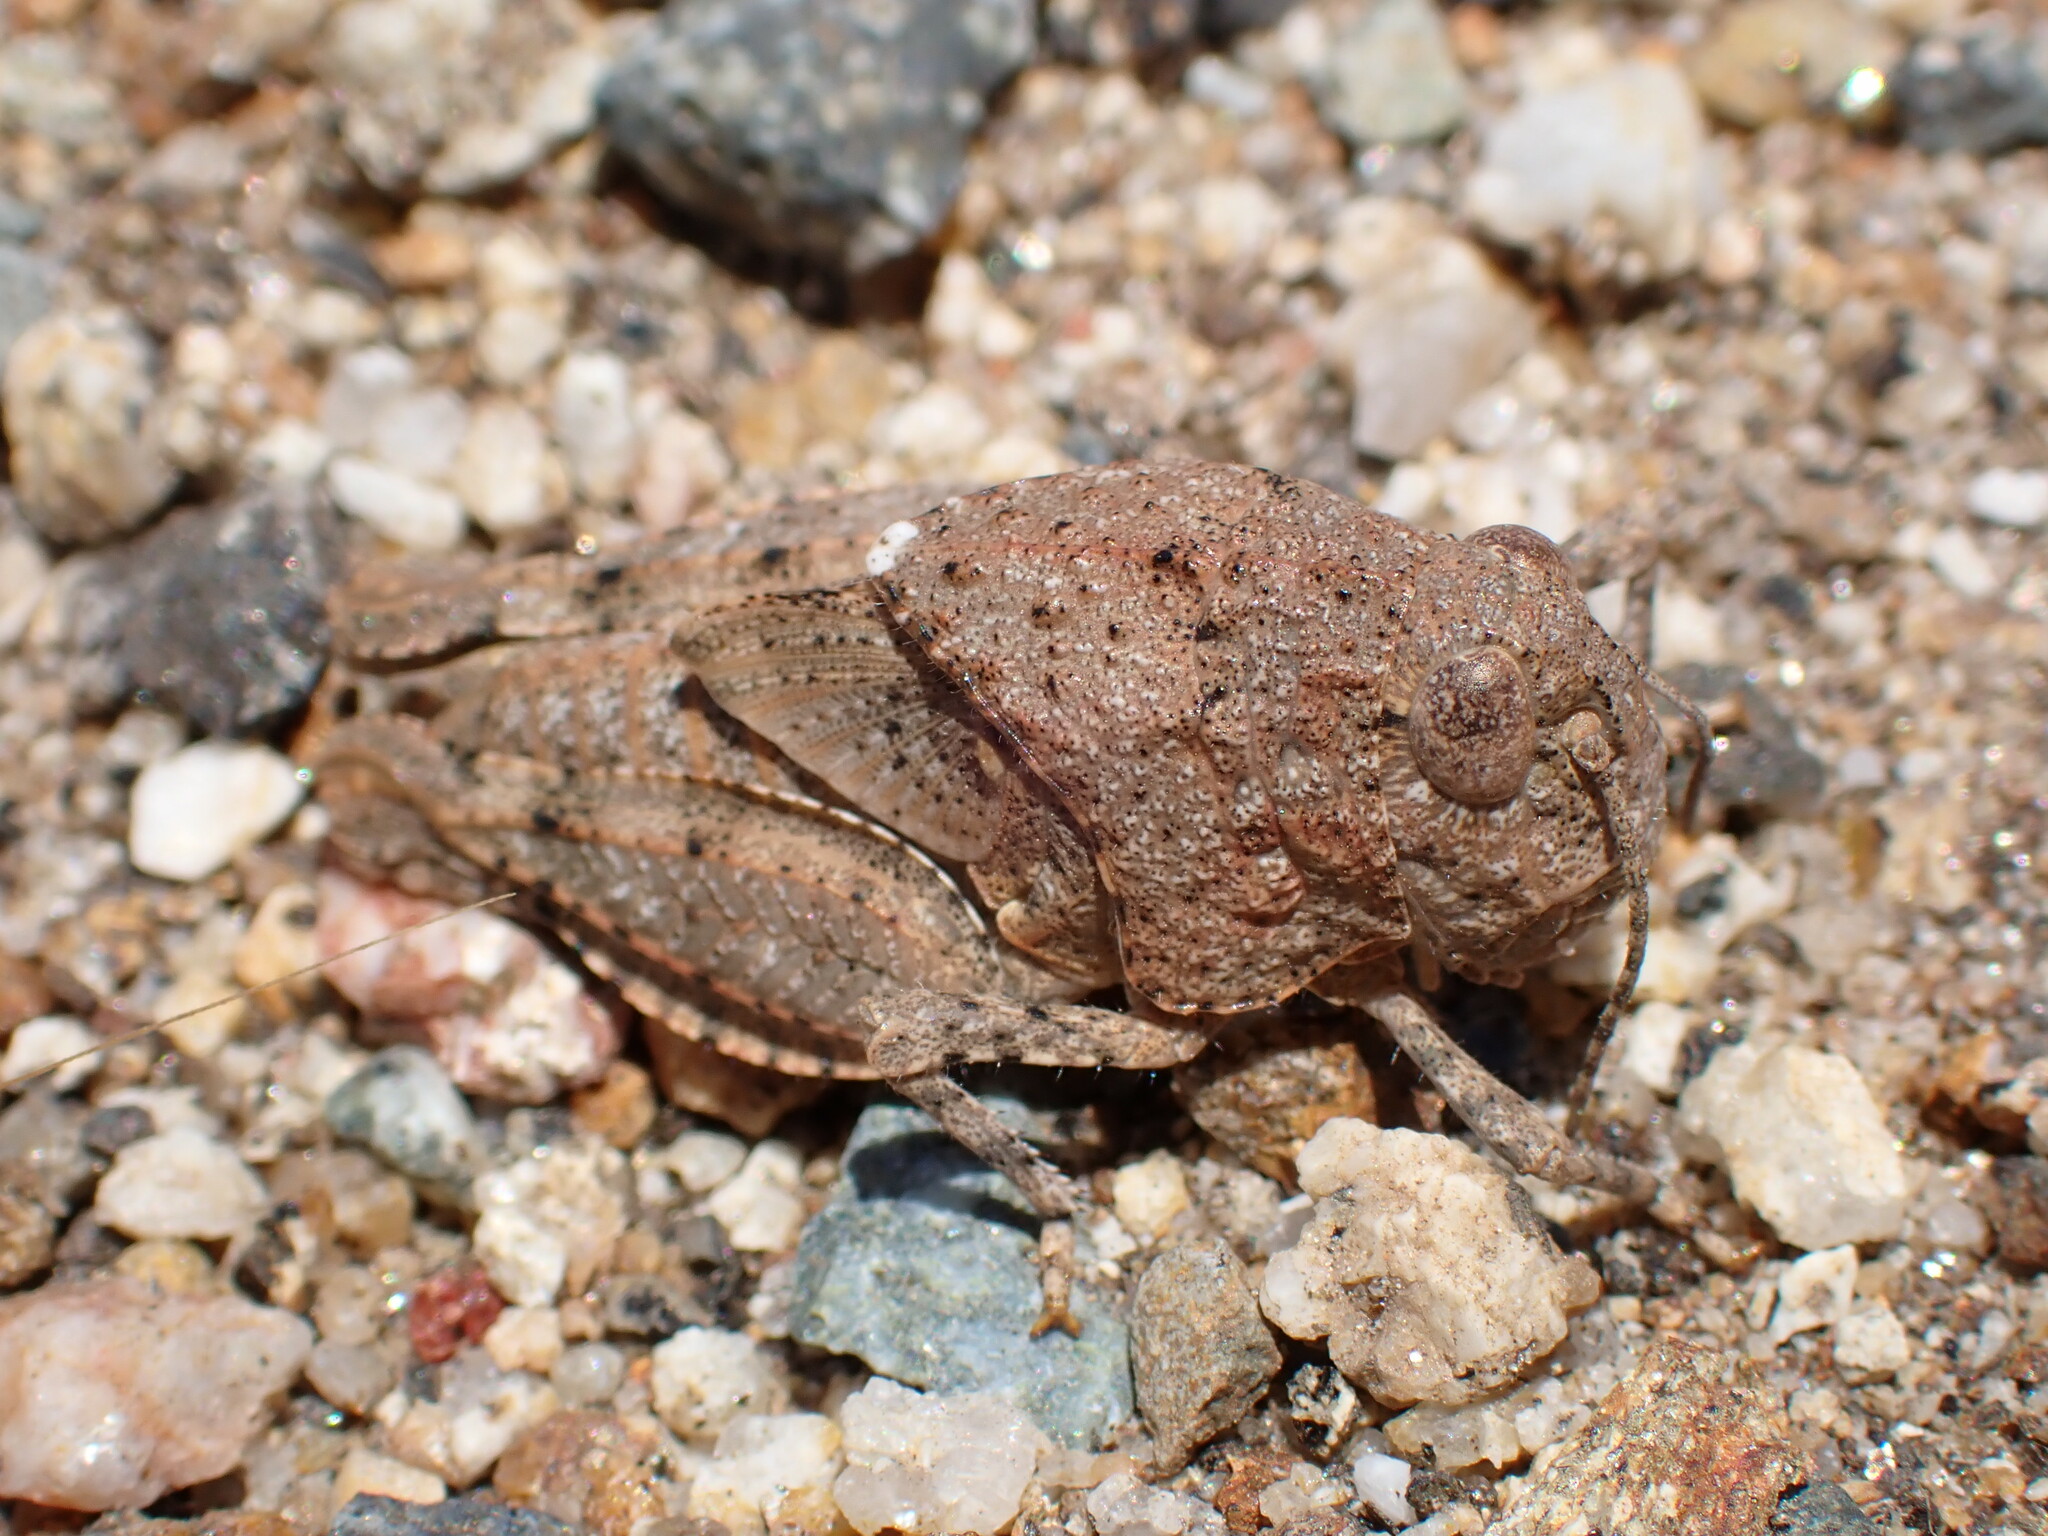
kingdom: Animalia
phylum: Arthropoda
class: Insecta
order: Orthoptera
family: Acrididae
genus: Leprus
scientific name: Leprus intermedius
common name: Saussure's blue-winged grasshopper
